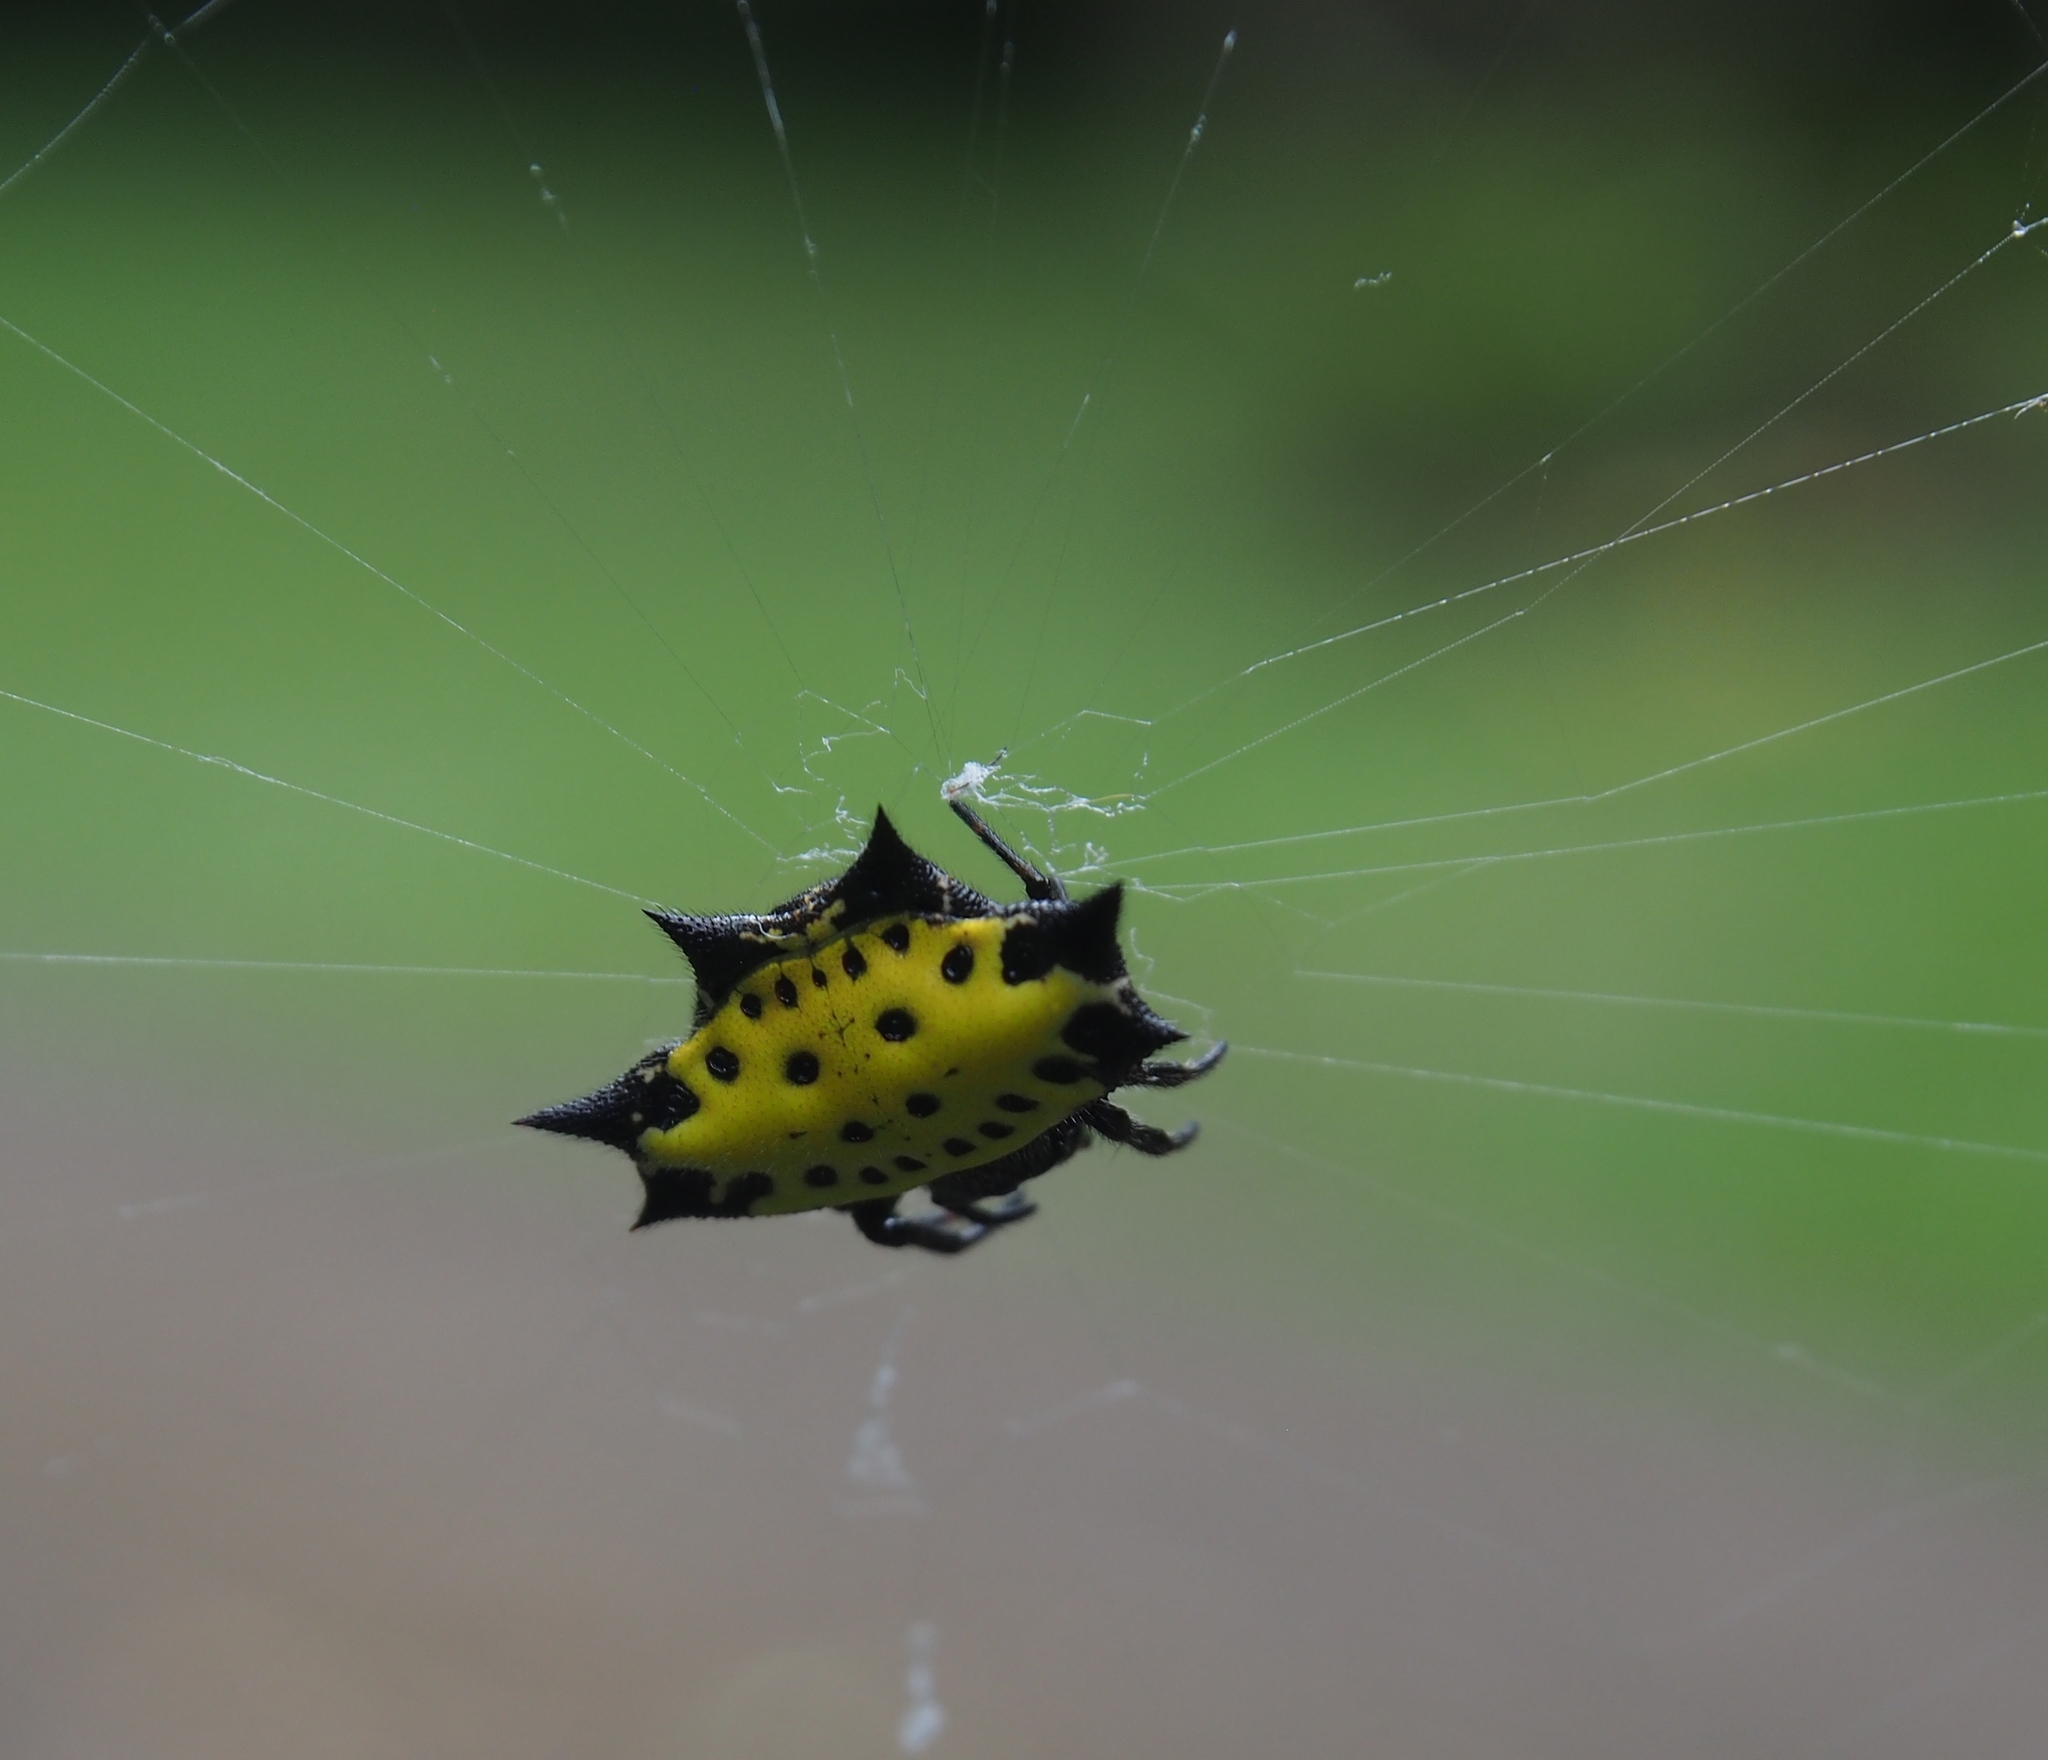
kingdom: Animalia
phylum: Arthropoda
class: Arachnida
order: Araneae
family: Araneidae
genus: Gasteracantha
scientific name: Gasteracantha cancriformis
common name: Orb weavers
